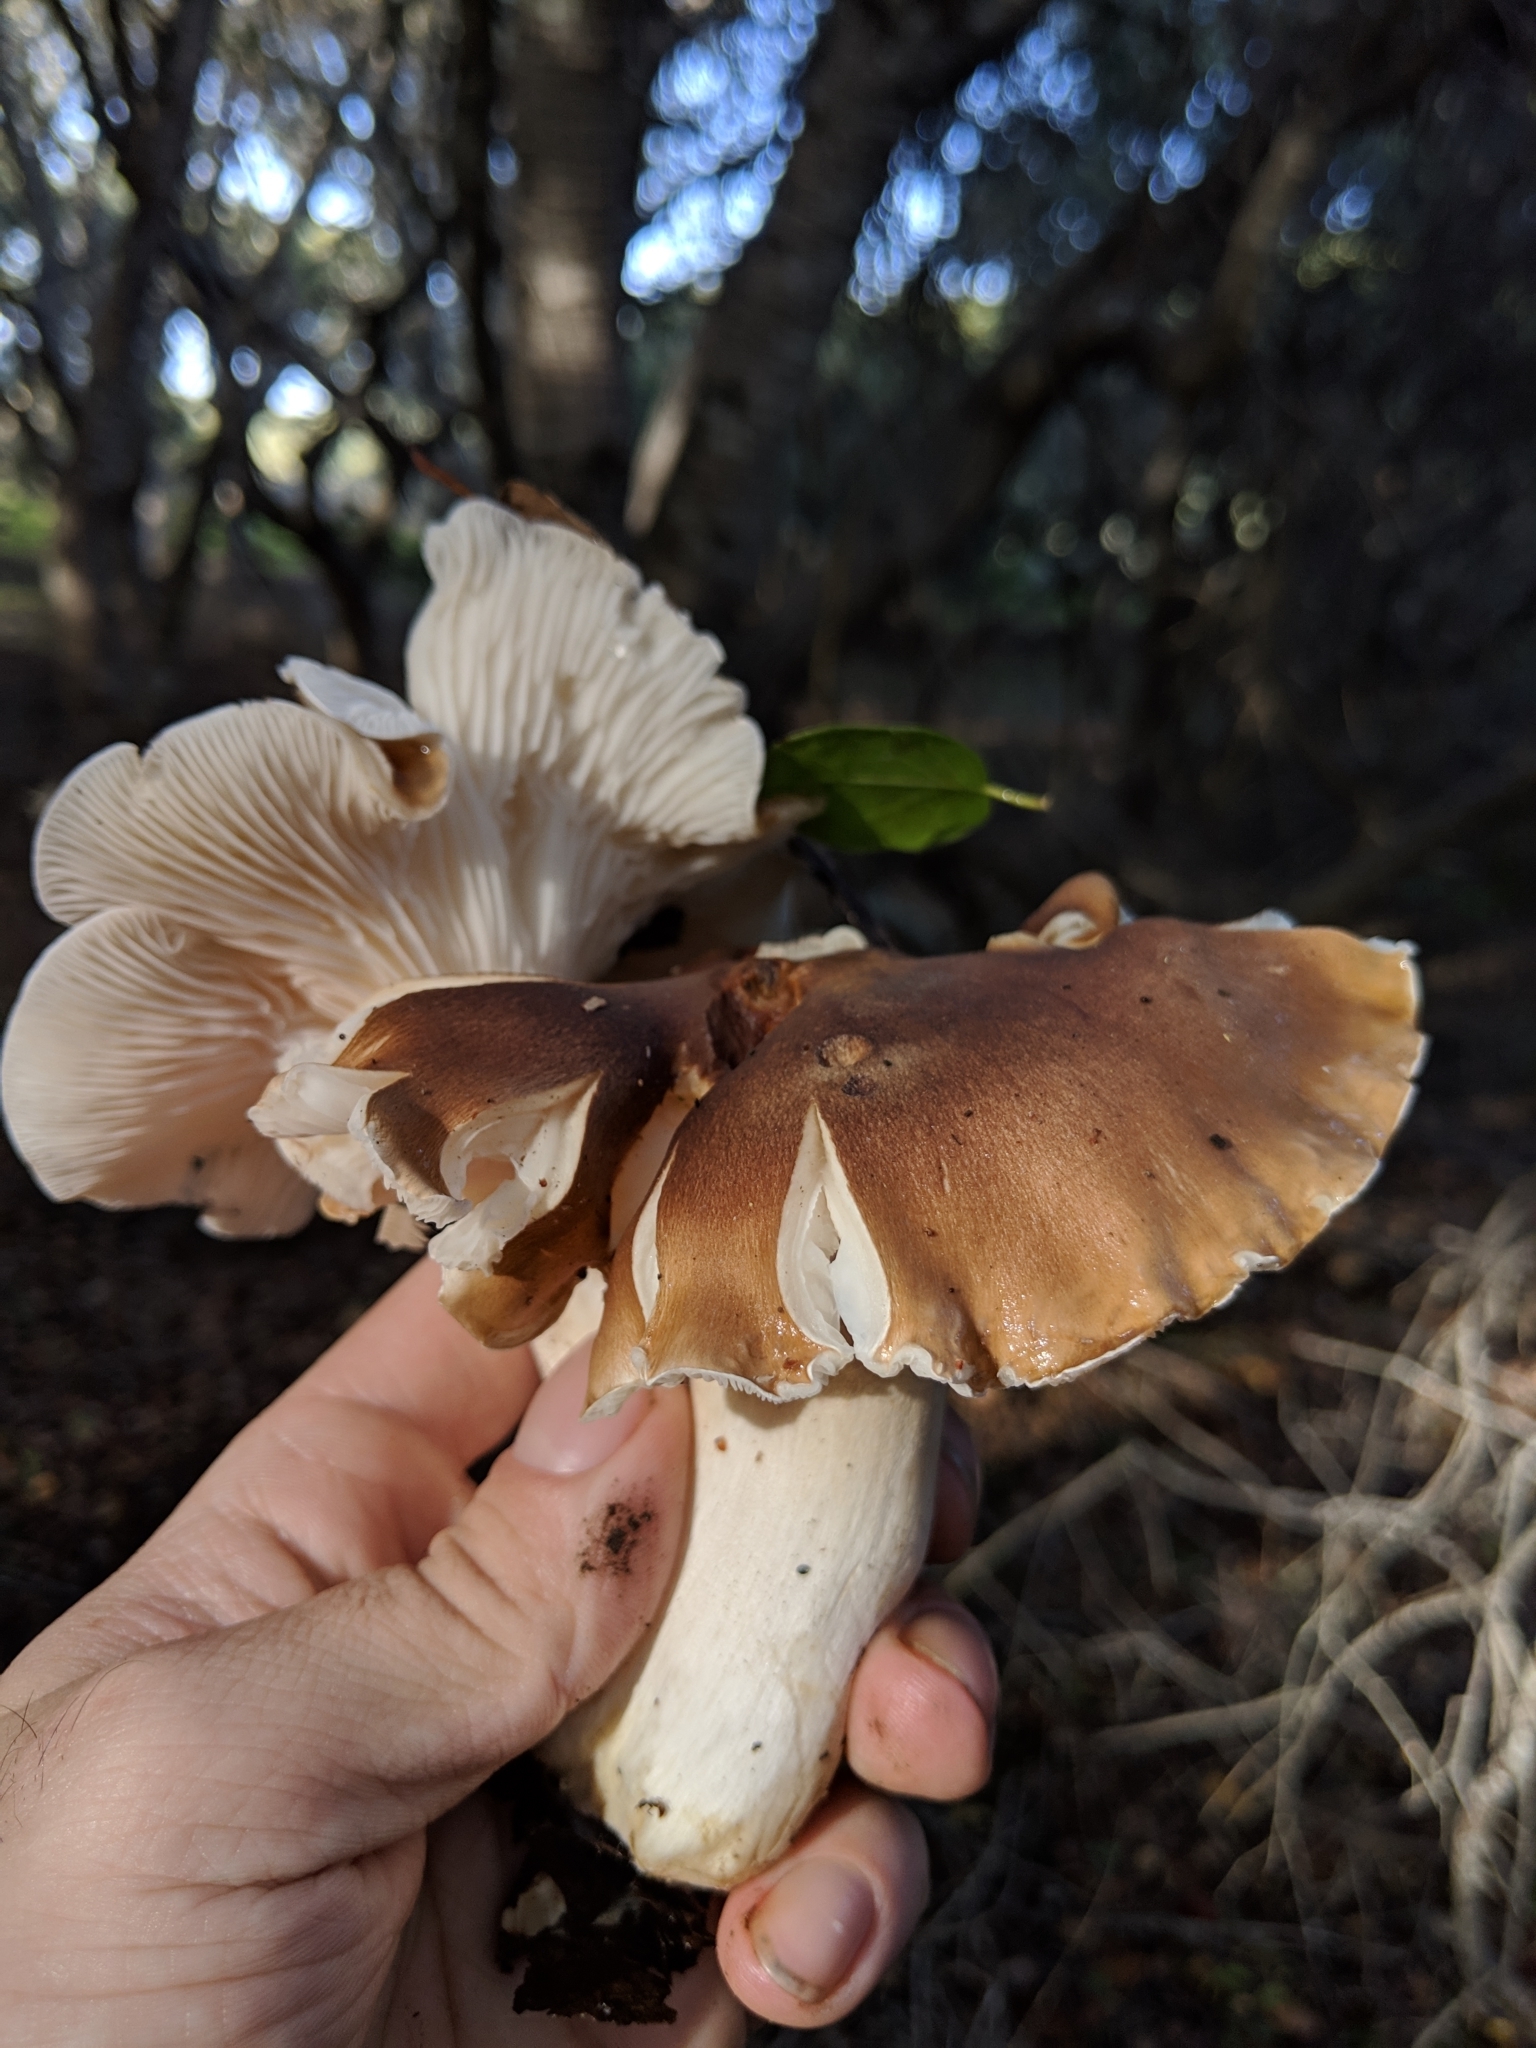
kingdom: Fungi
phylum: Basidiomycota
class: Agaricomycetes
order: Agaricales
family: Hygrophoraceae
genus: Hygrophorus
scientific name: Hygrophorus roseobrunneus
